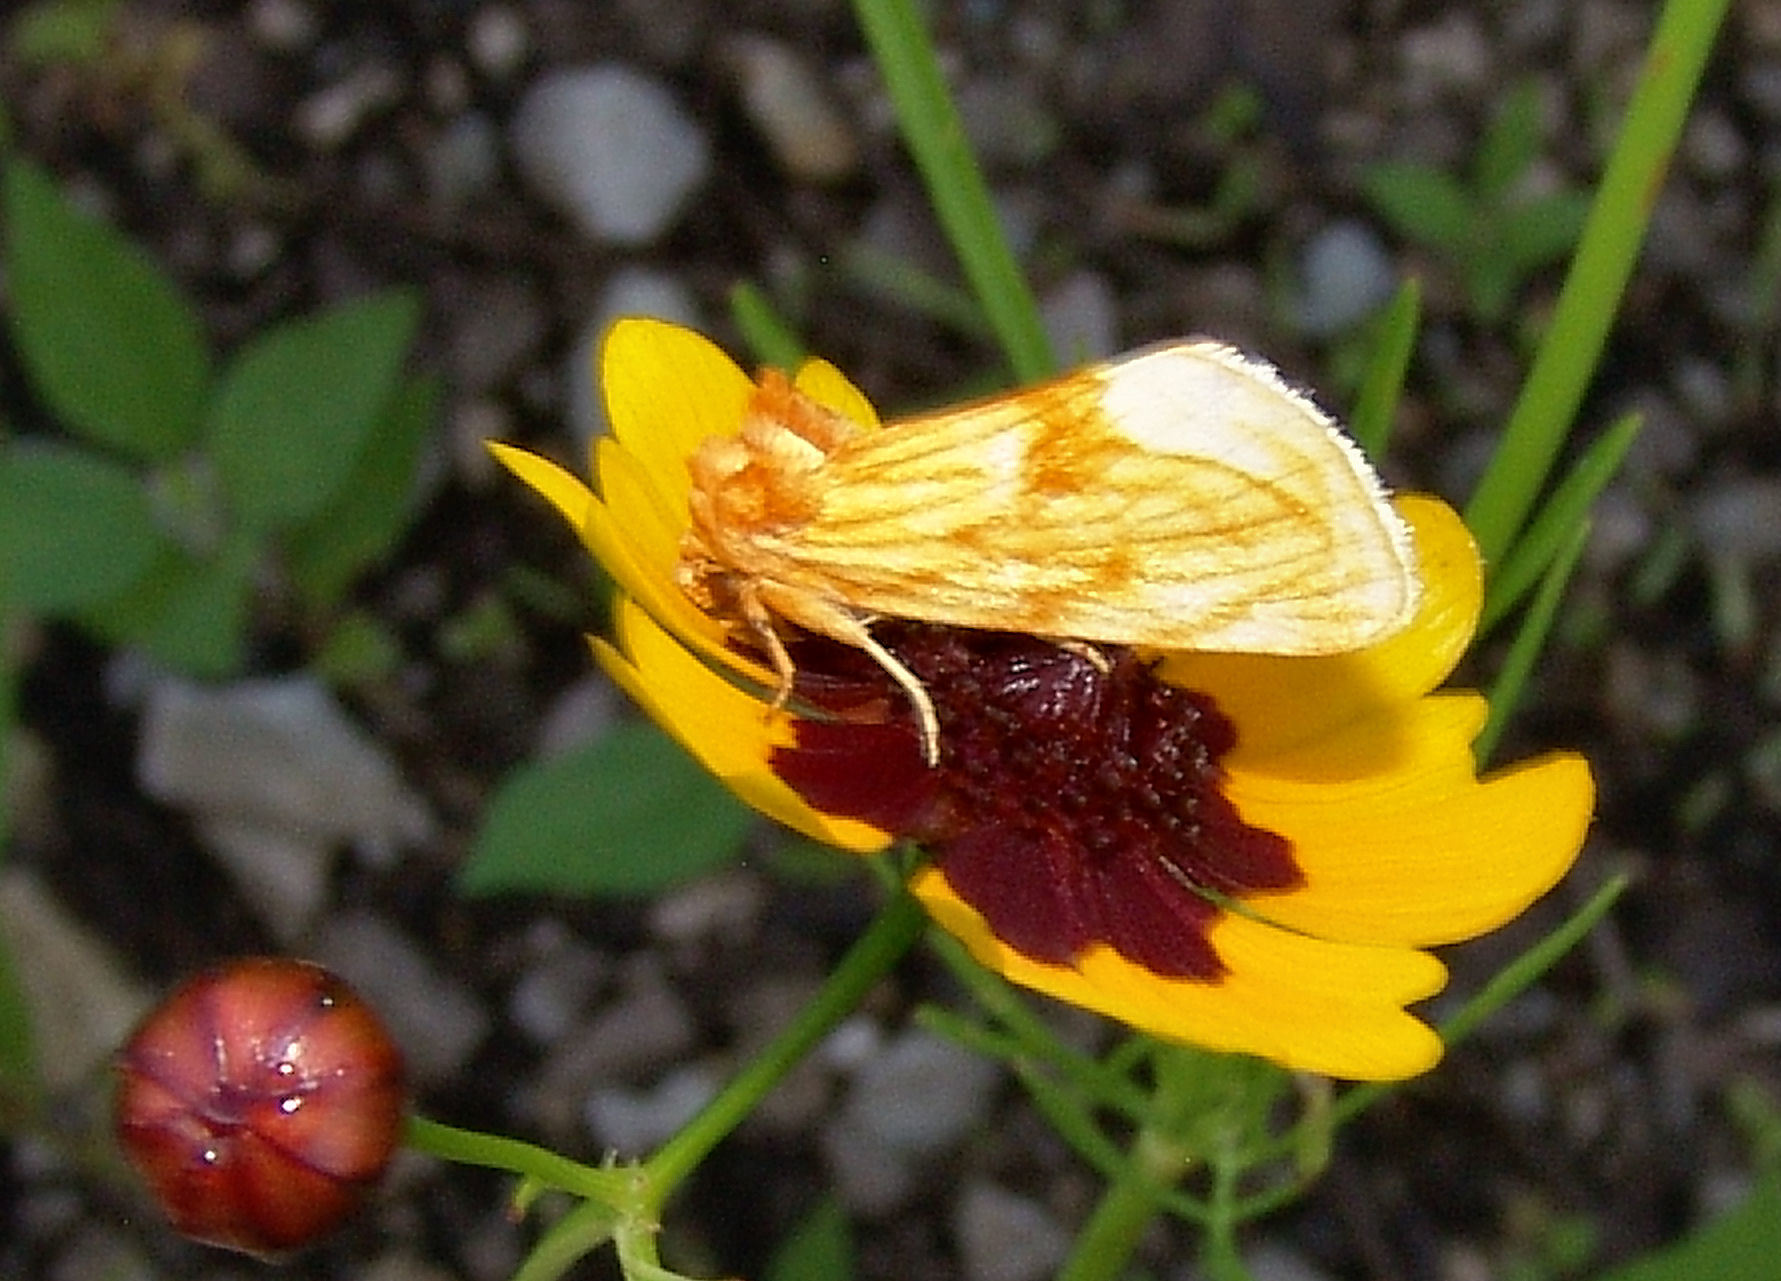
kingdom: Animalia
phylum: Arthropoda
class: Insecta
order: Lepidoptera
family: Noctuidae
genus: Cirrhophanus
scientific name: Cirrhophanus triangulifer
